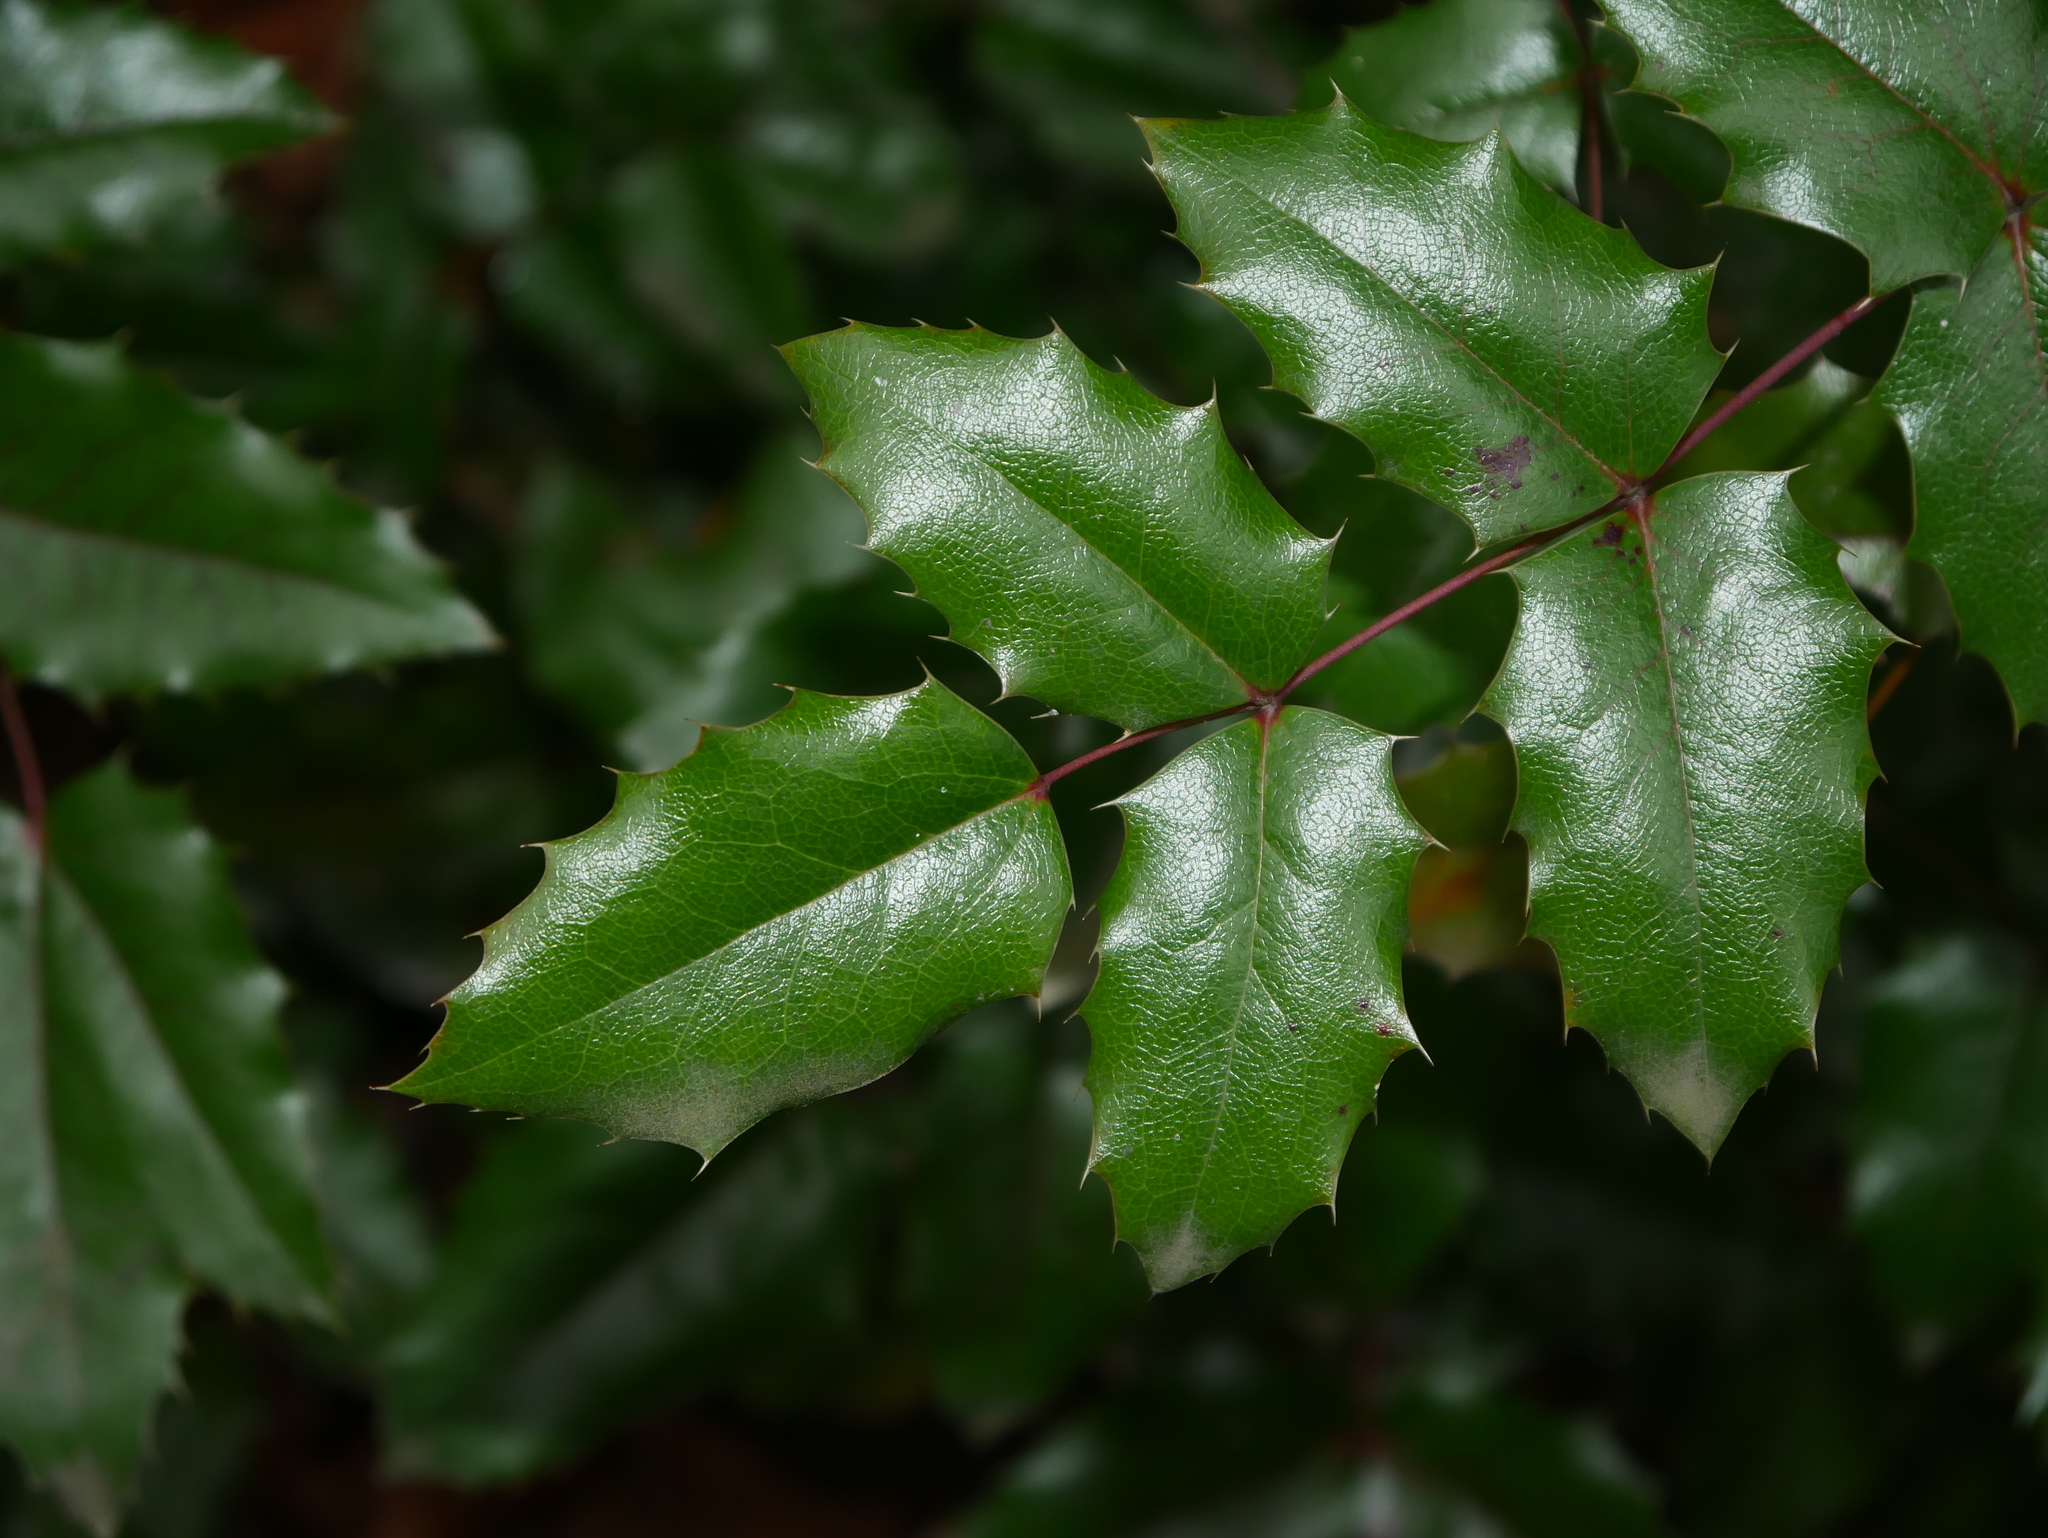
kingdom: Plantae
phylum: Tracheophyta
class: Magnoliopsida
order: Ranunculales
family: Berberidaceae
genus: Mahonia
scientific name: Mahonia aquifolium
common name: Oregon-grape
